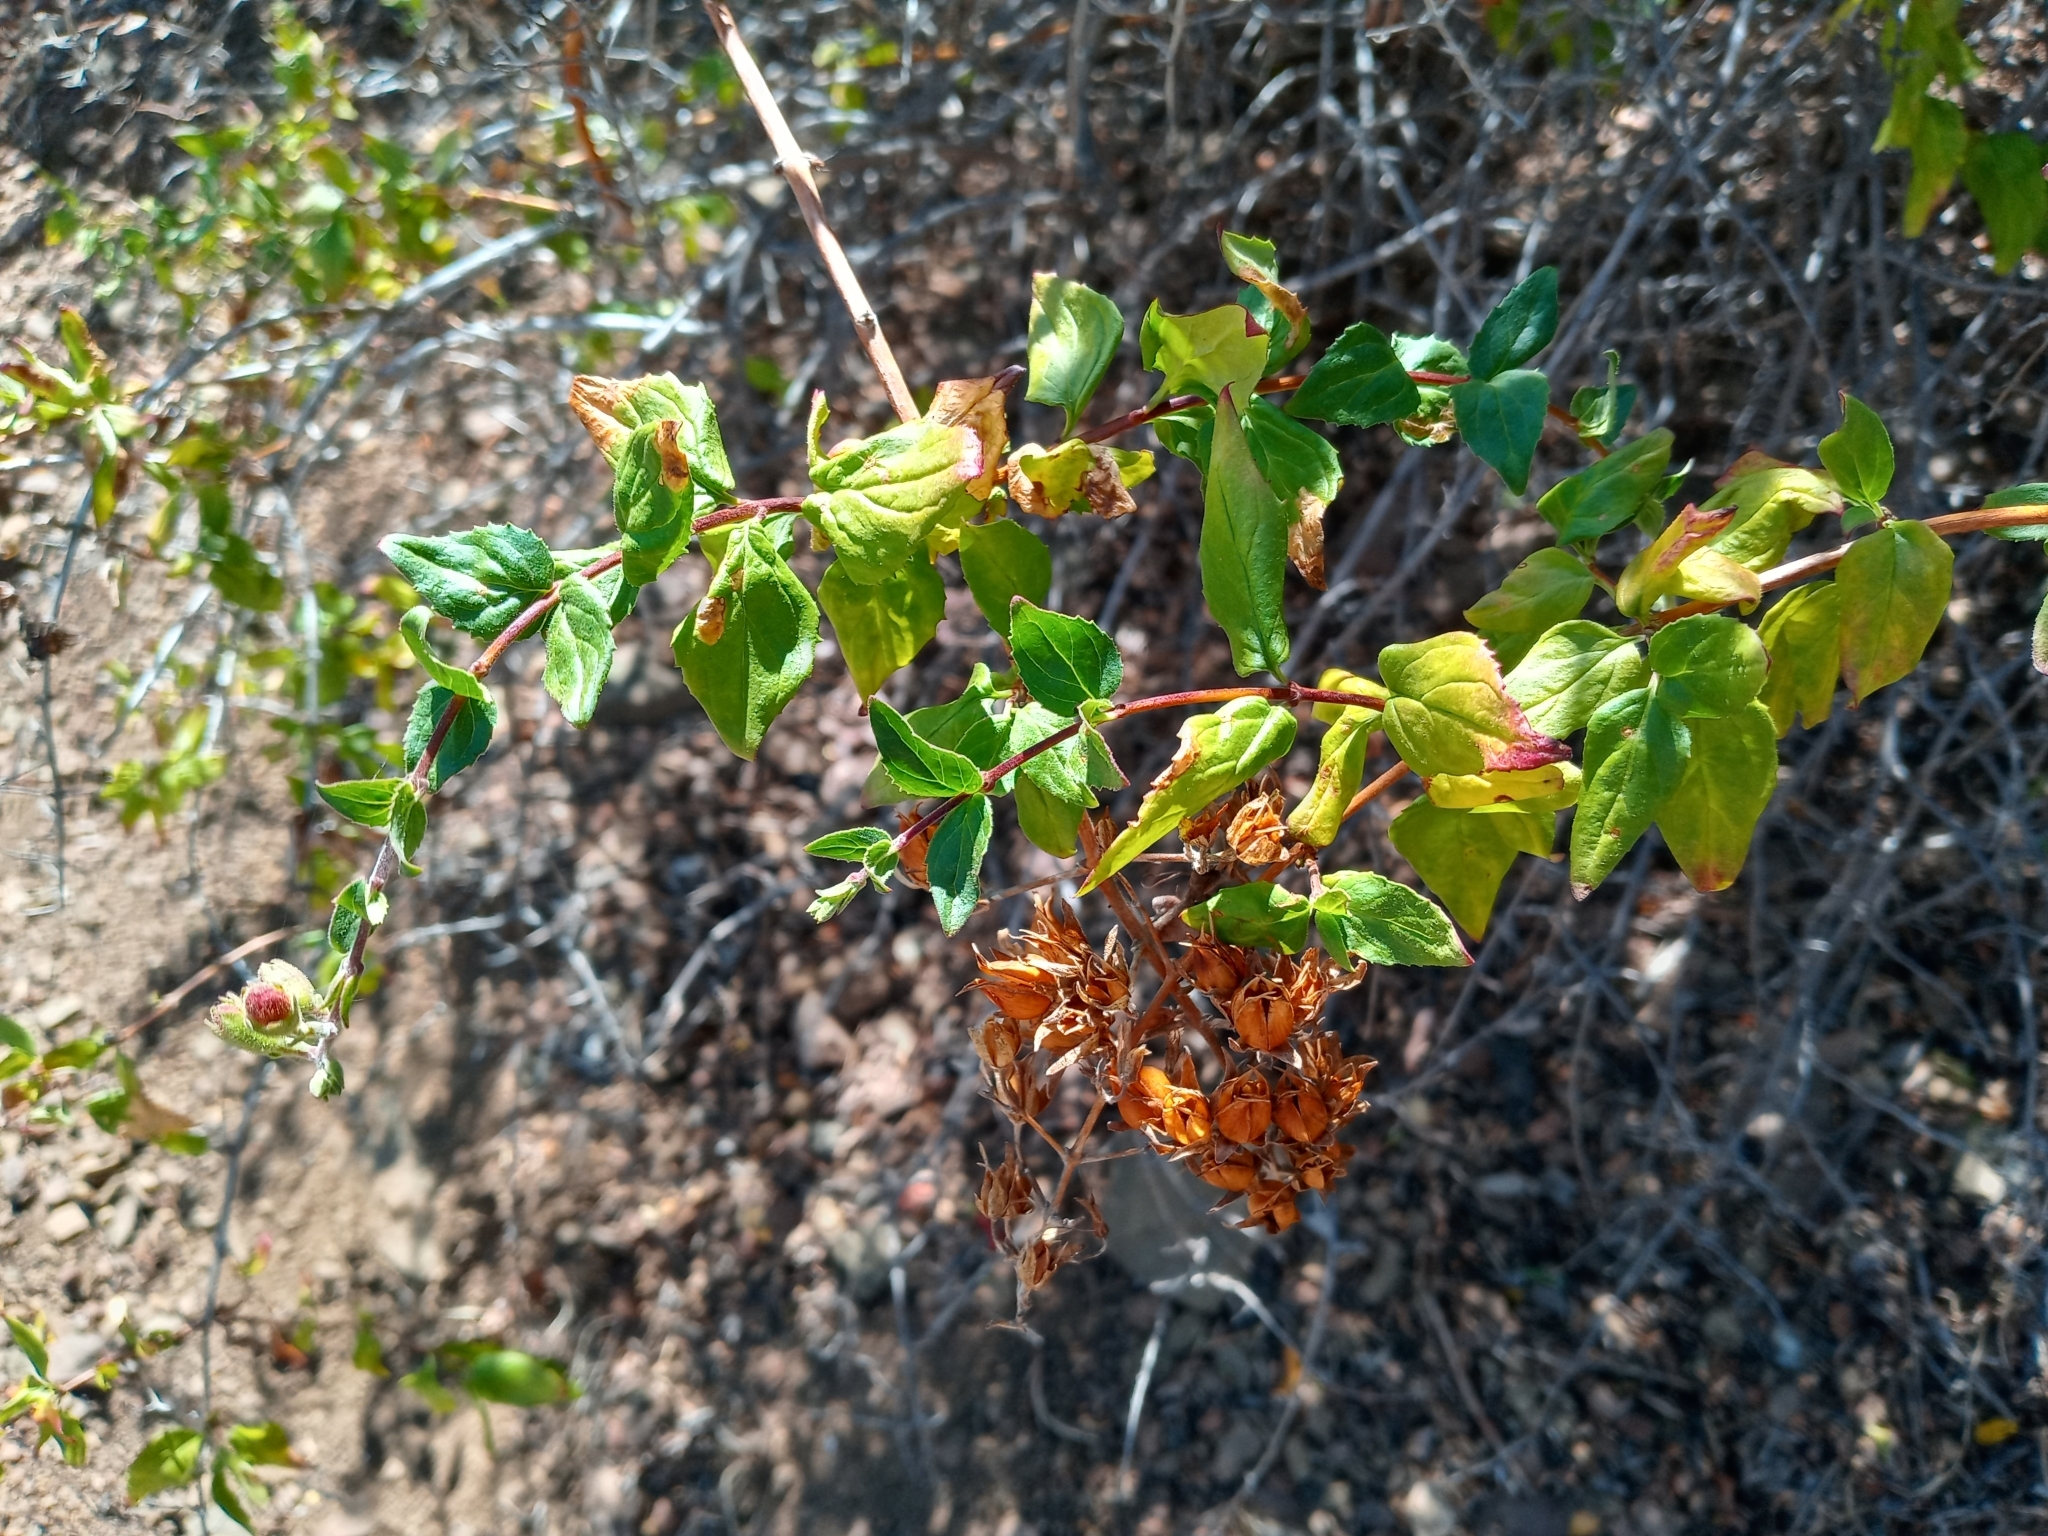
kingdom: Plantae
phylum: Tracheophyta
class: Magnoliopsida
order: Lamiales
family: Plantaginaceae
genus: Keckiella
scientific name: Keckiella cordifolia
